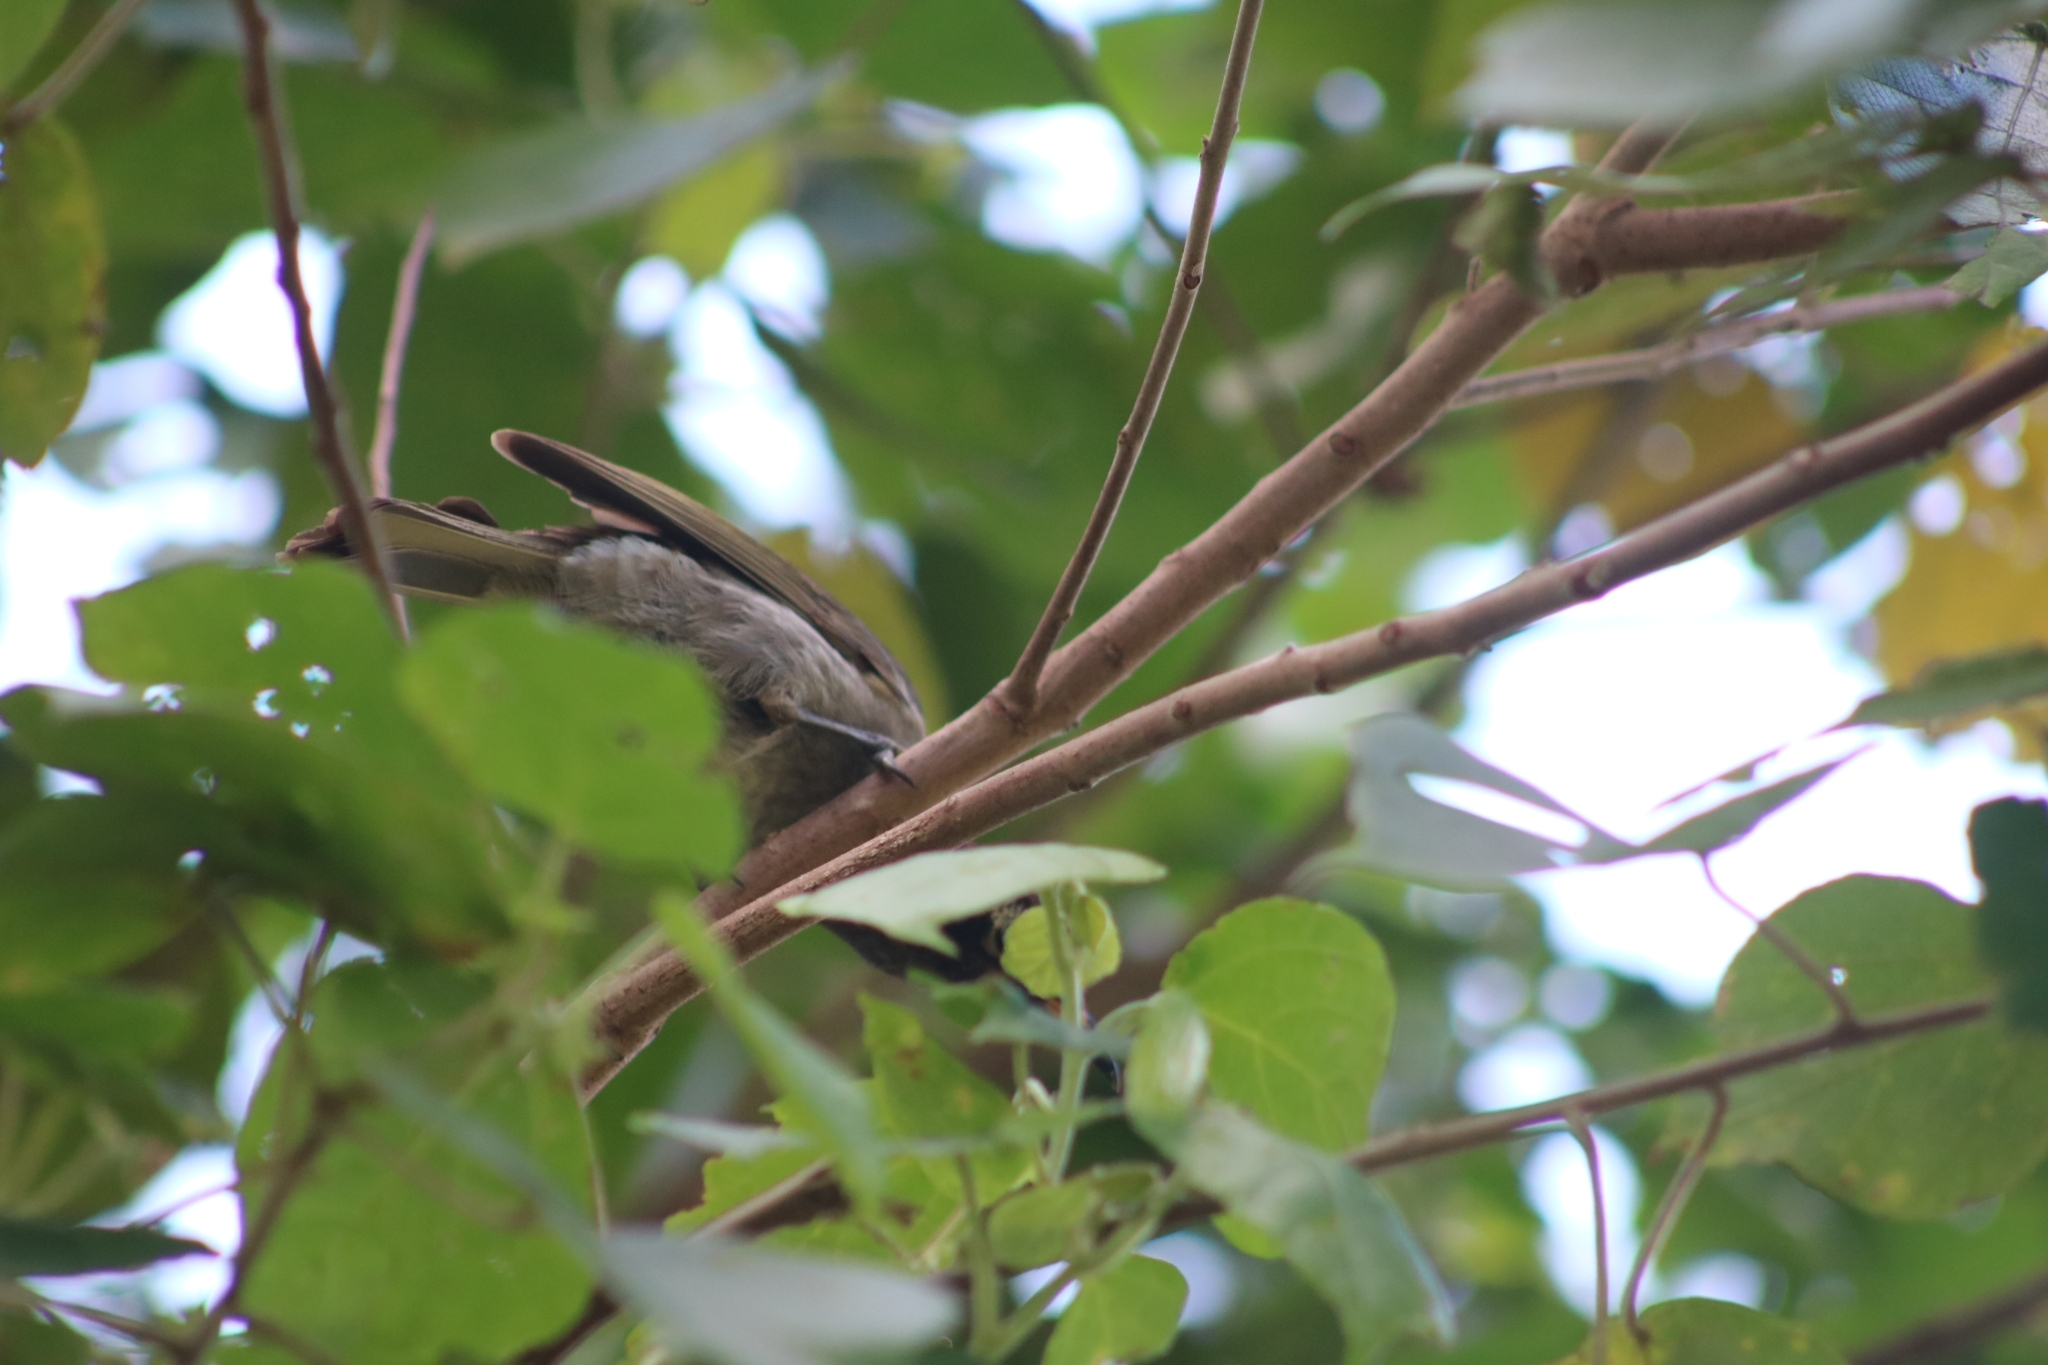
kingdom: Animalia
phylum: Chordata
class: Aves
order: Passeriformes
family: Meliphagidae
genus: Bolemoreus
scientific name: Bolemoreus frenatus
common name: Bridled honeyeater
